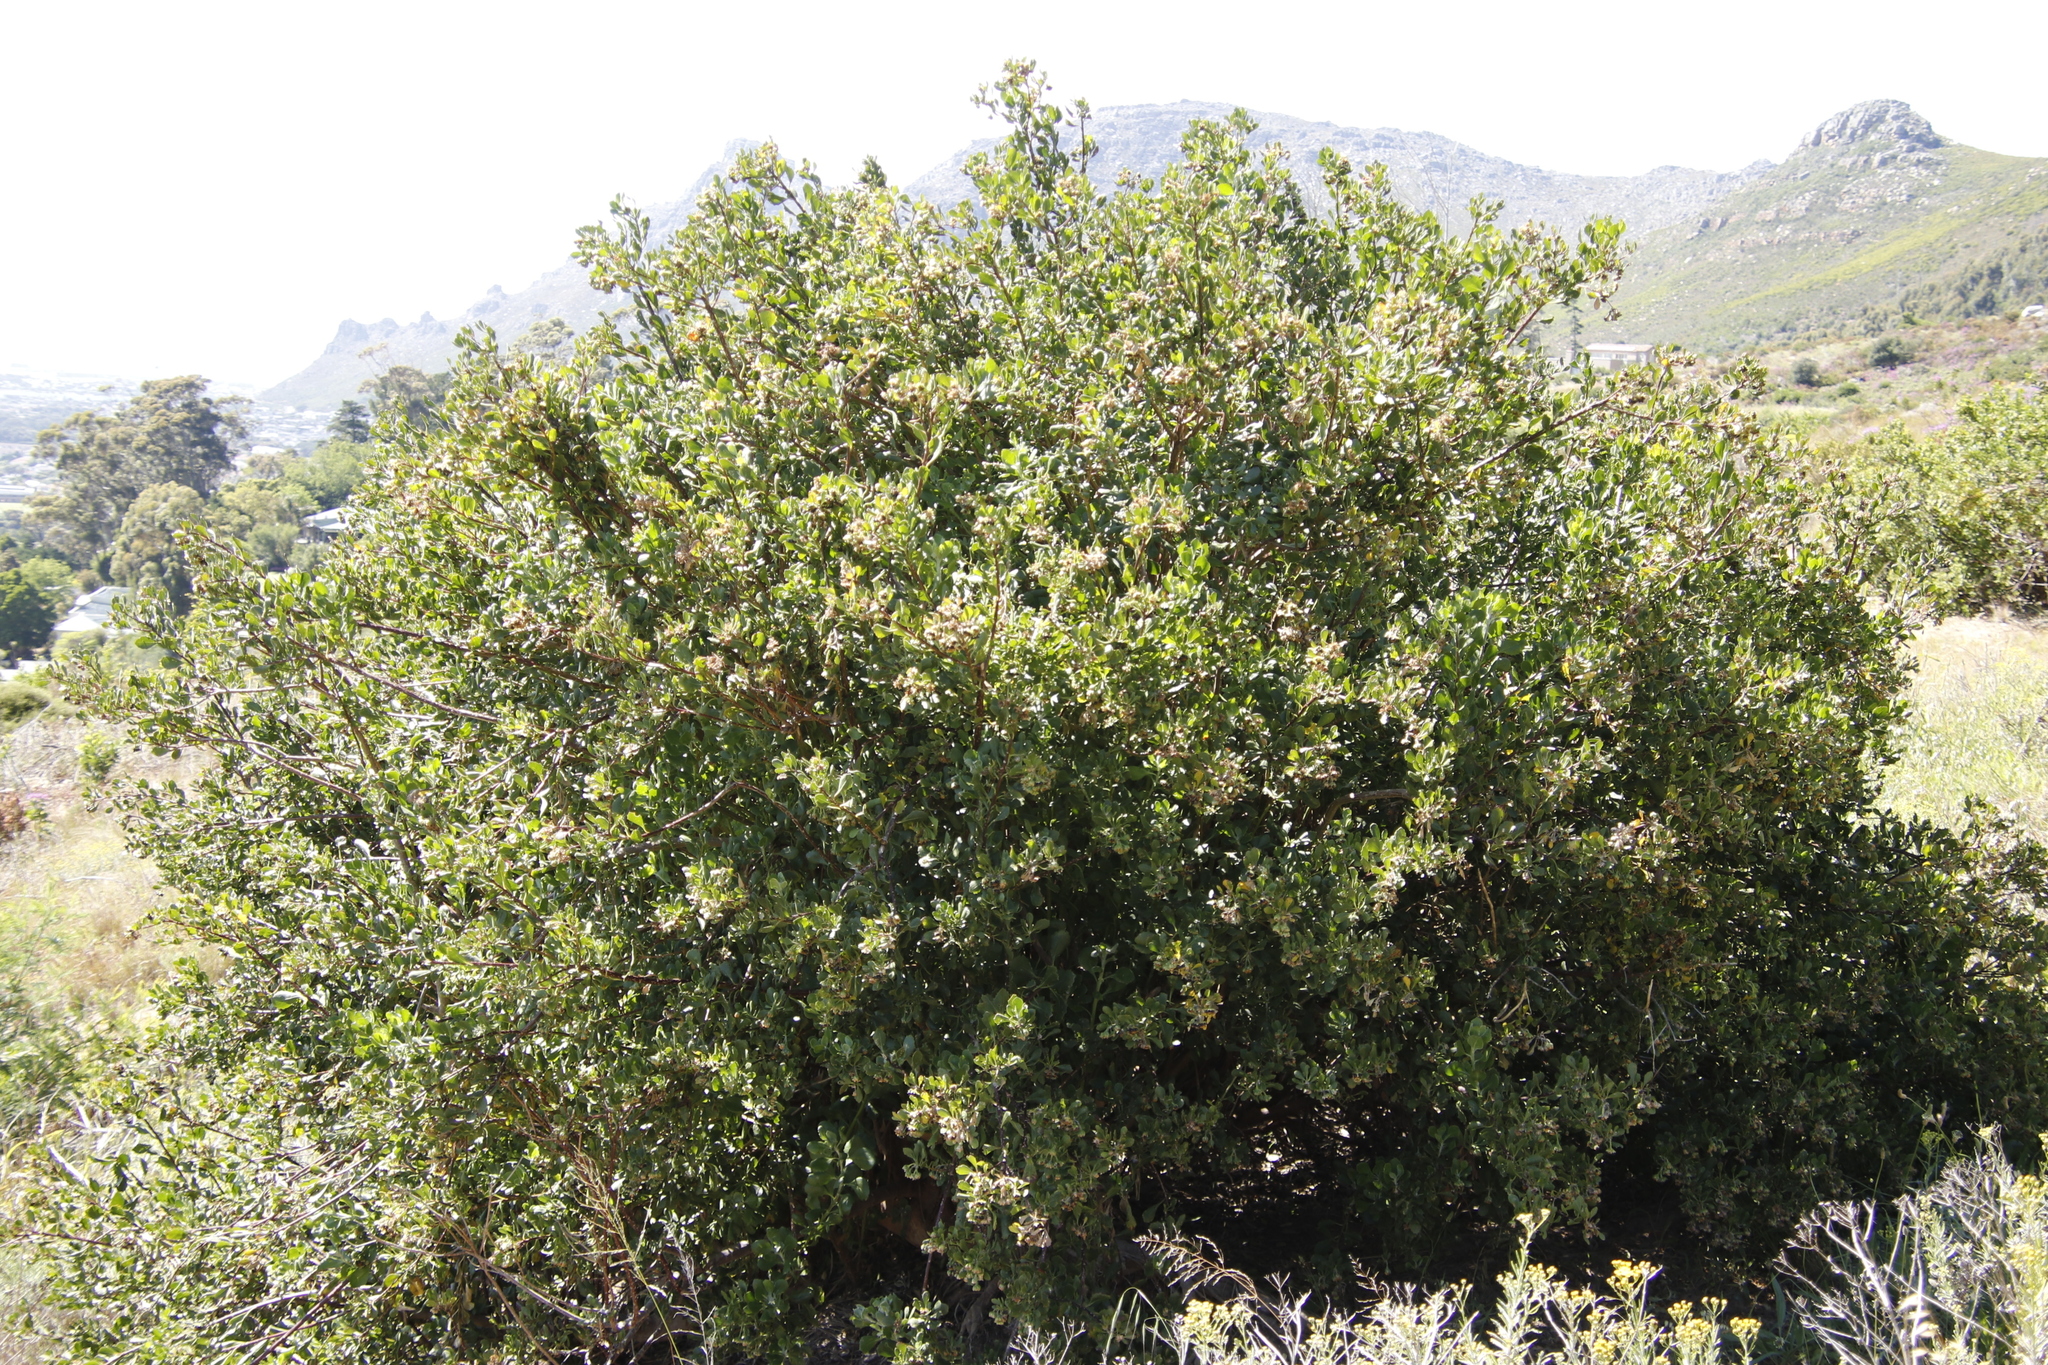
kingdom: Plantae
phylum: Tracheophyta
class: Magnoliopsida
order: Asterales
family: Asteraceae
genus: Osteospermum
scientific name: Osteospermum moniliferum
